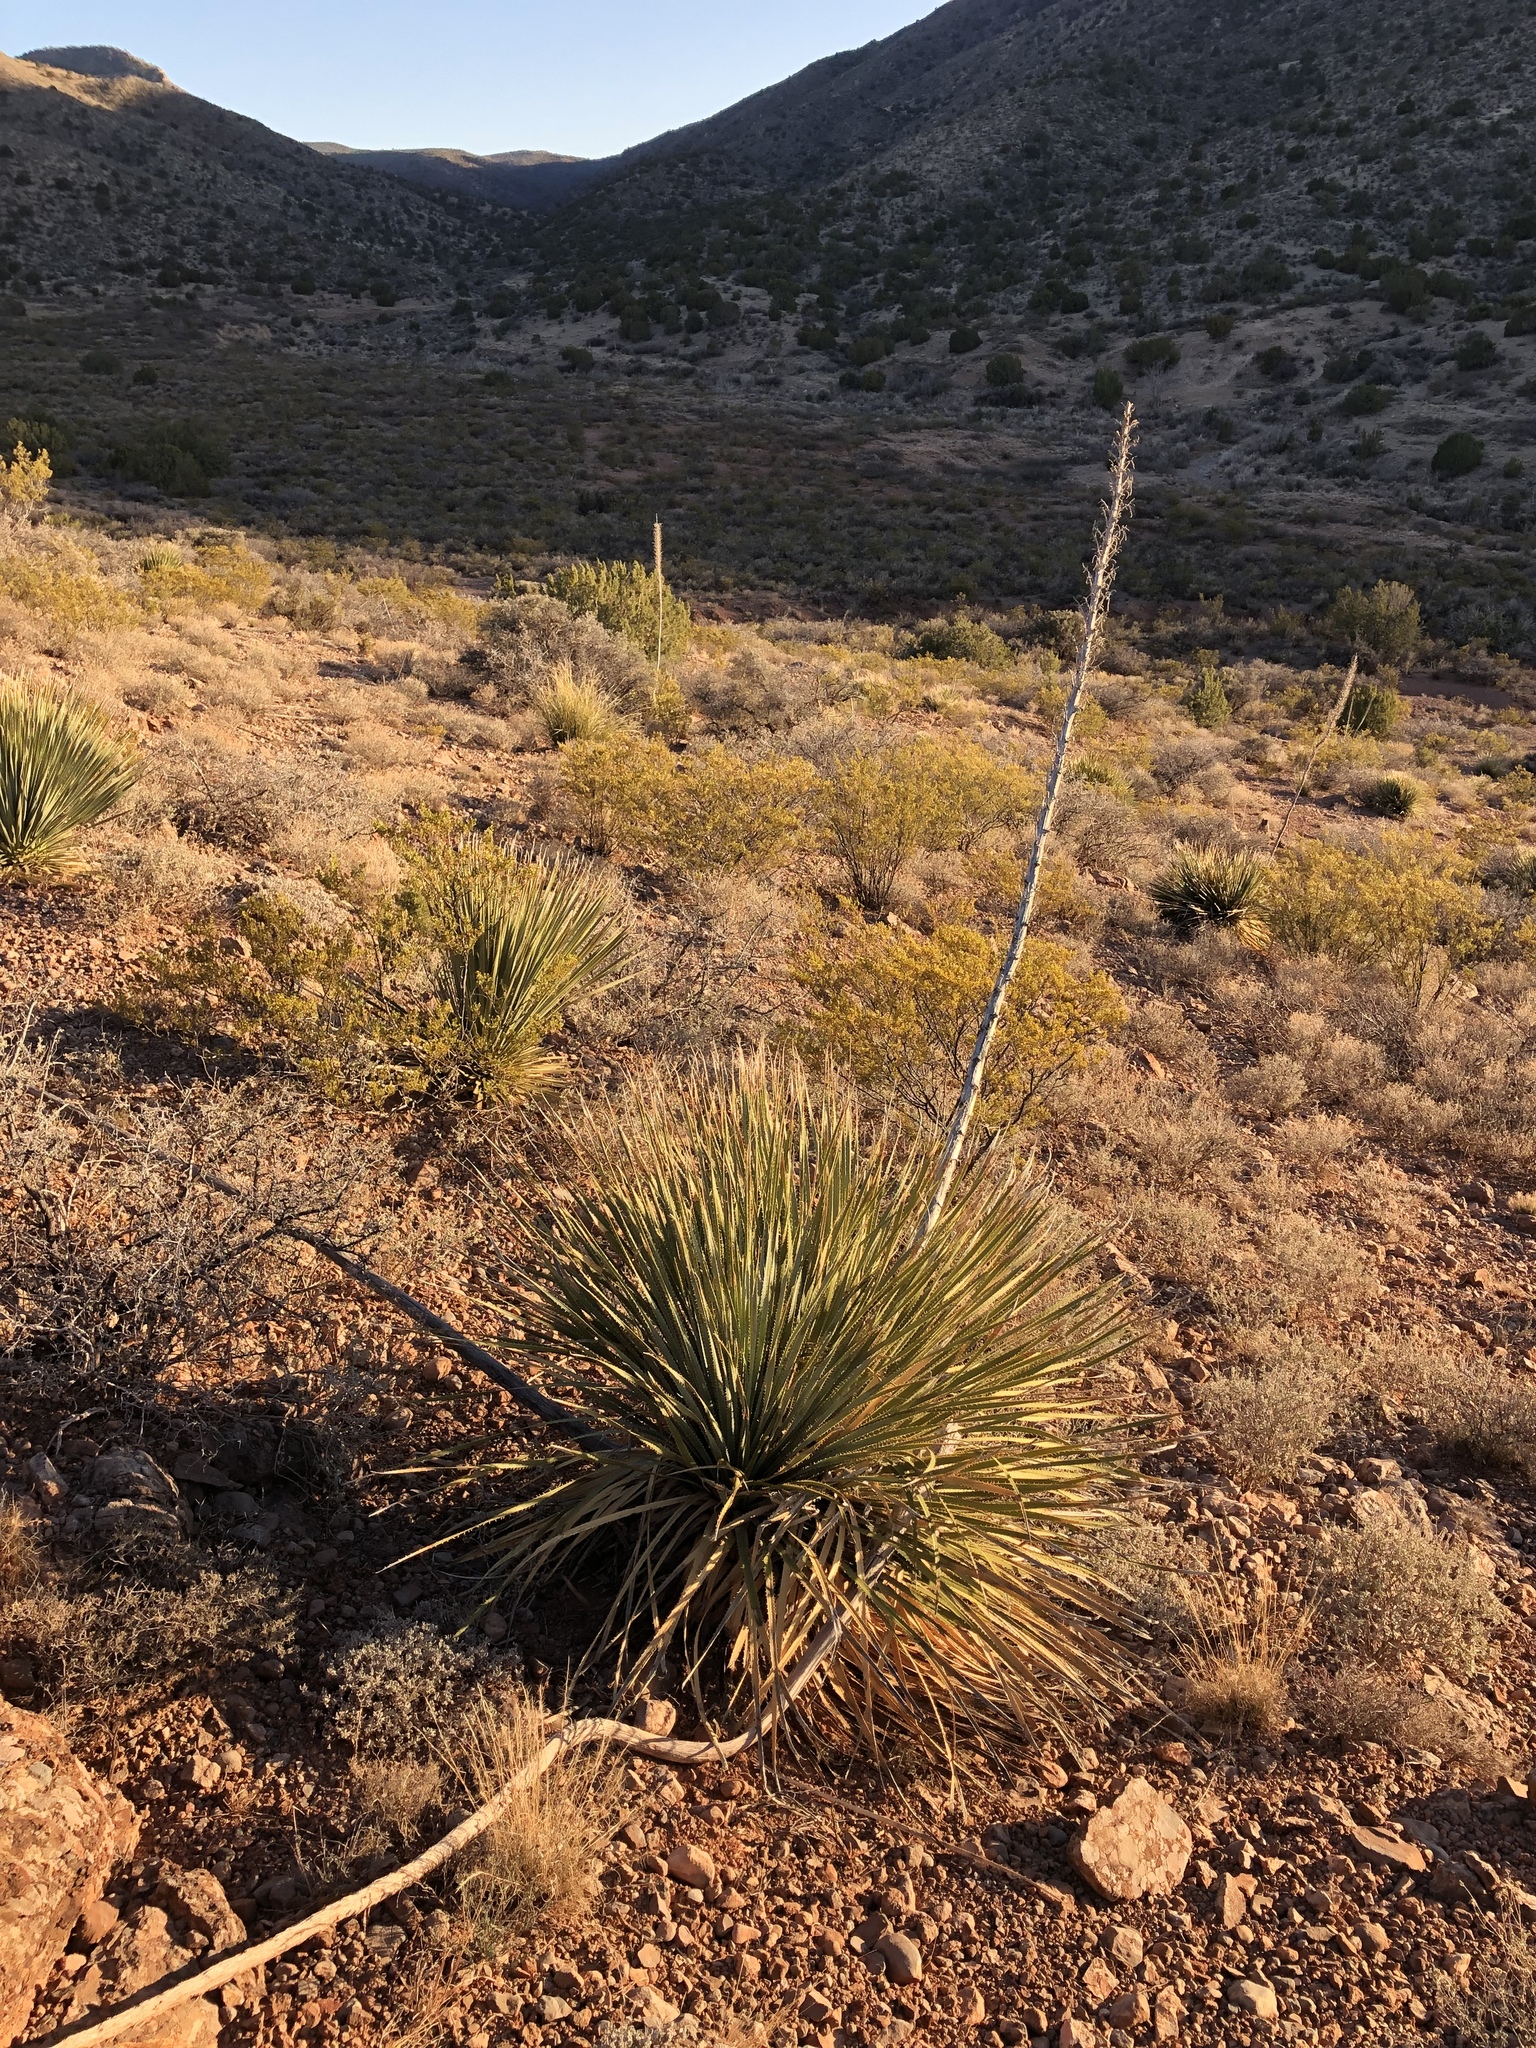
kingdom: Plantae
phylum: Tracheophyta
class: Liliopsida
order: Asparagales
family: Asparagaceae
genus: Dasylirion
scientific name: Dasylirion wheeleri
